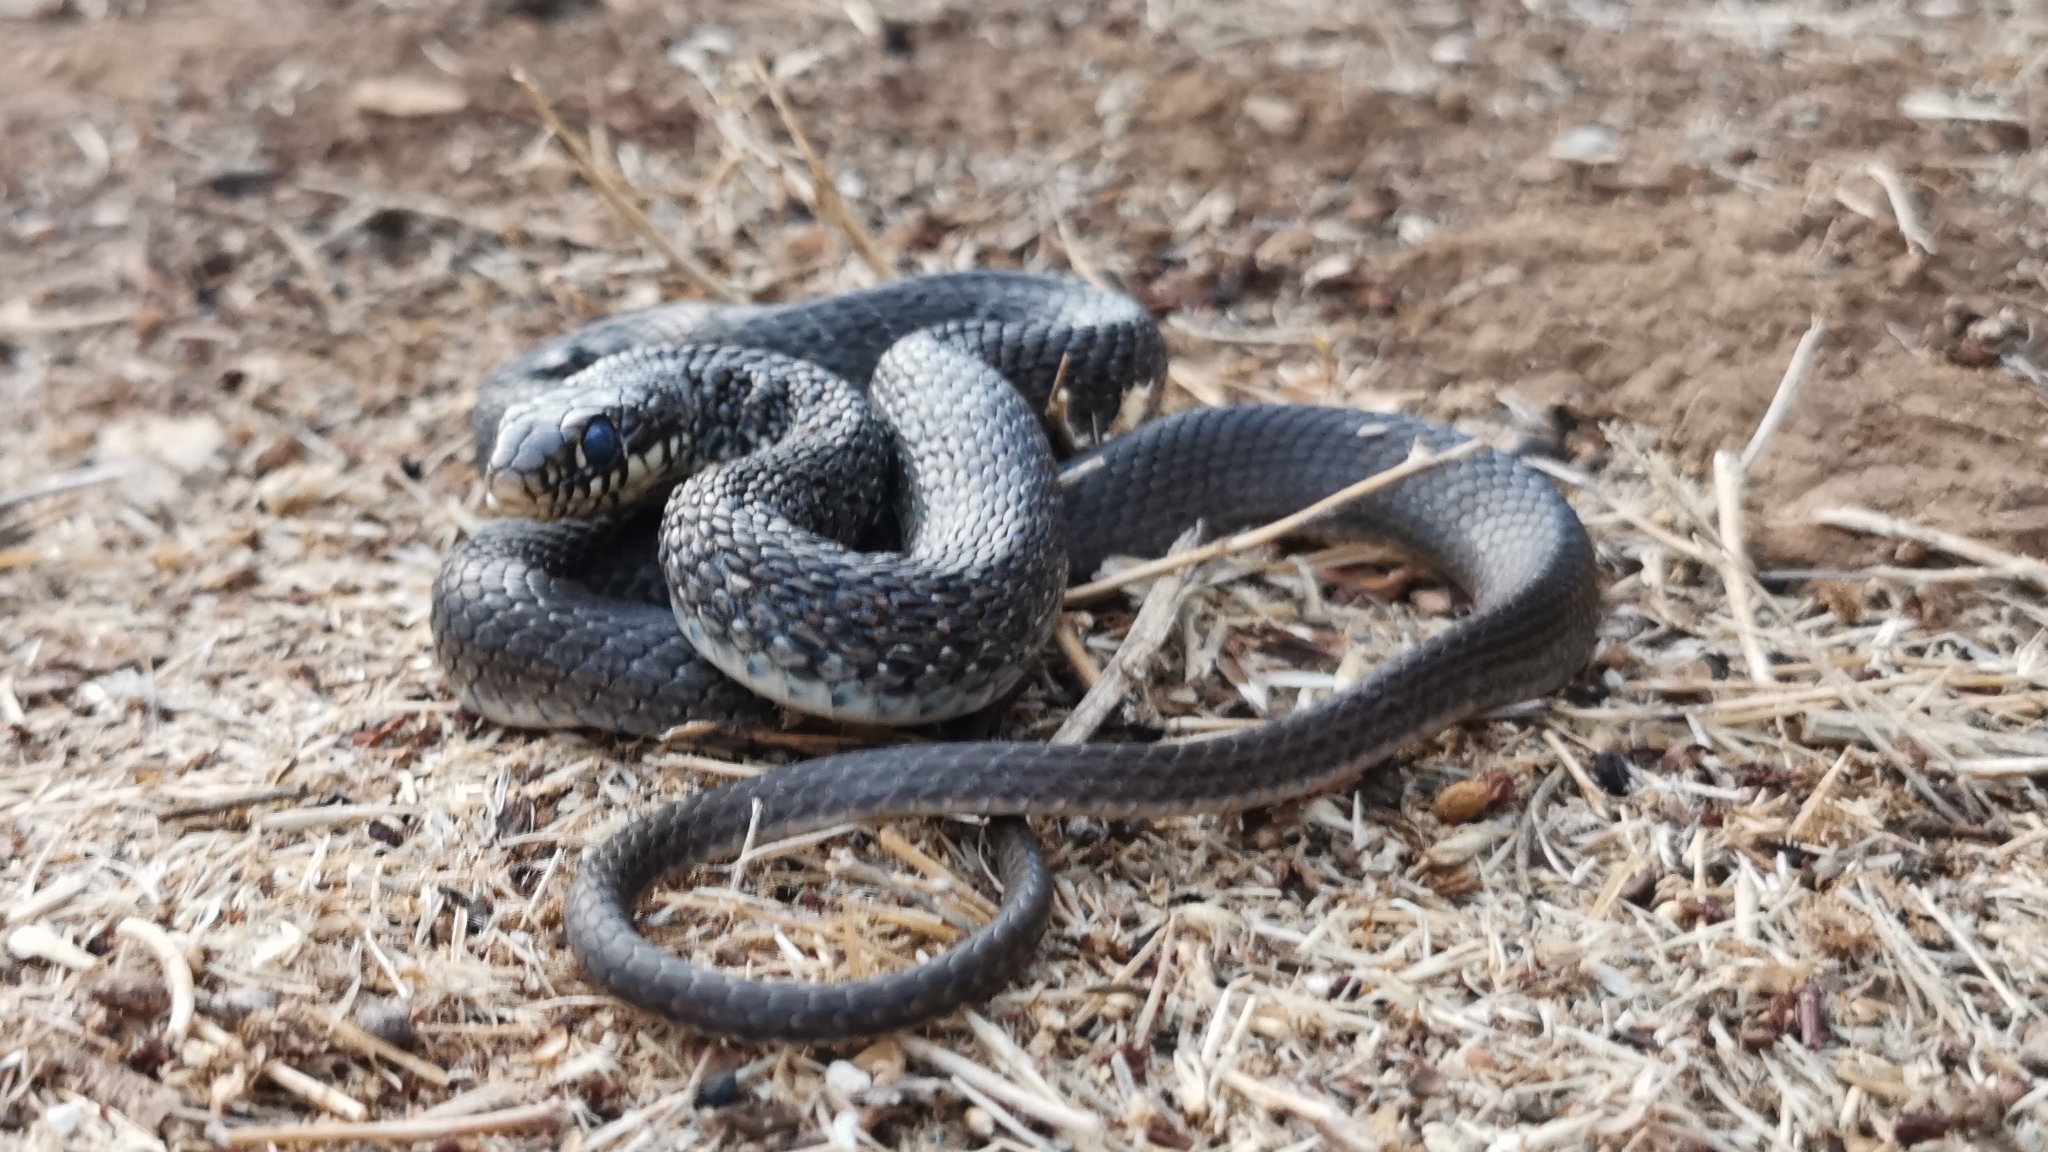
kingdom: Animalia
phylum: Chordata
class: Squamata
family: Colubridae
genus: Hierophis
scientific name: Hierophis gemonensis
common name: Balkan whip snake
